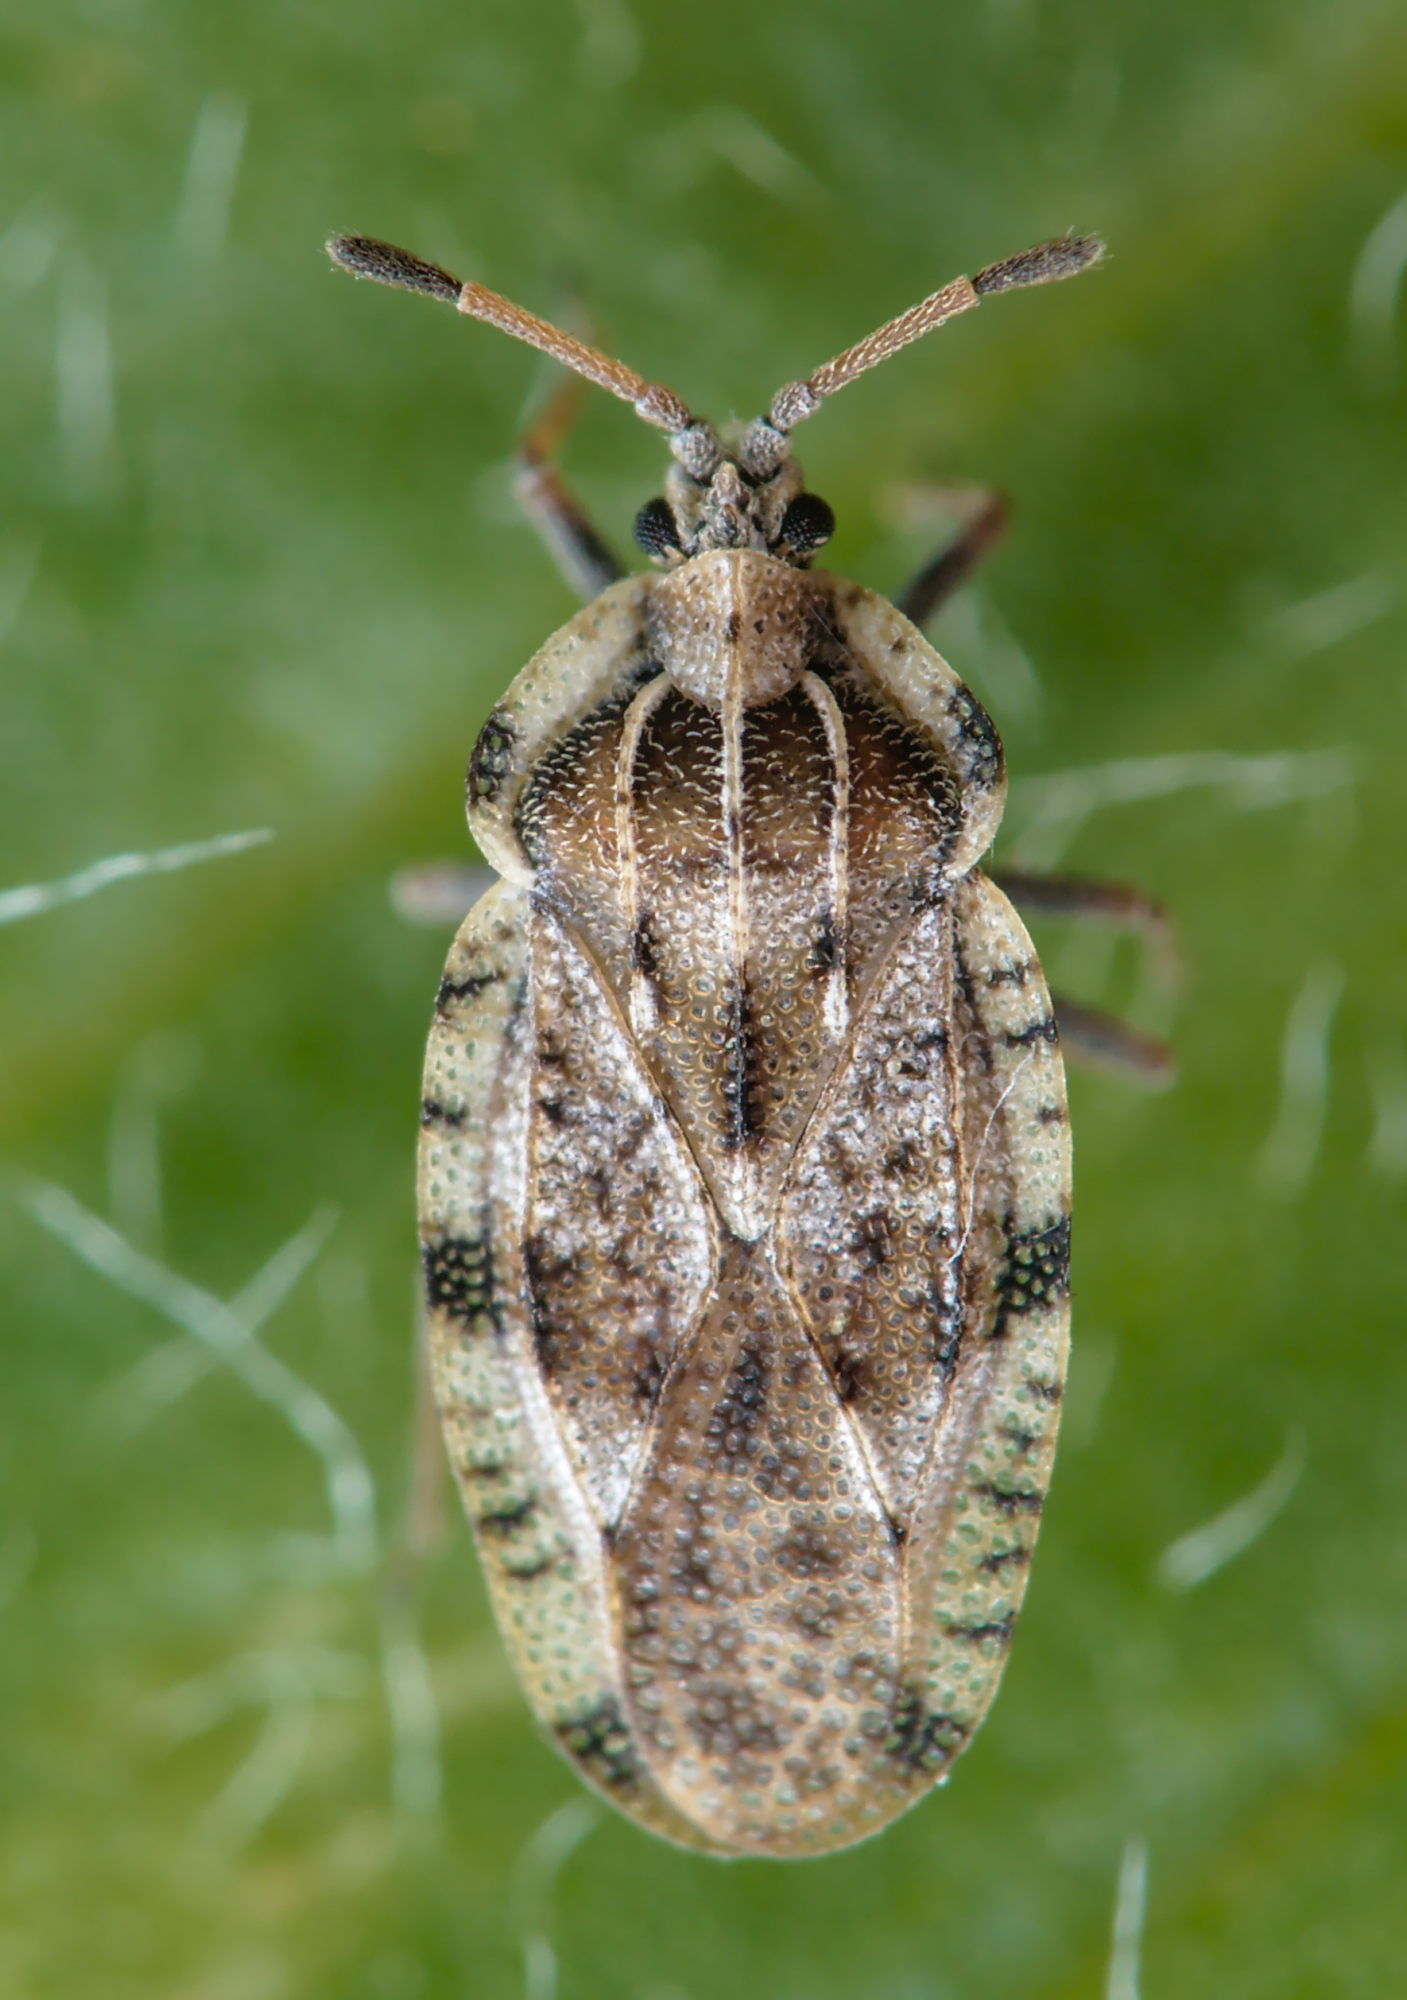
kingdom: Animalia
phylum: Arthropoda
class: Insecta
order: Hemiptera
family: Tingidae
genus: Tingis
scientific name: Tingis cardui
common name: Spear thistle lacebug
